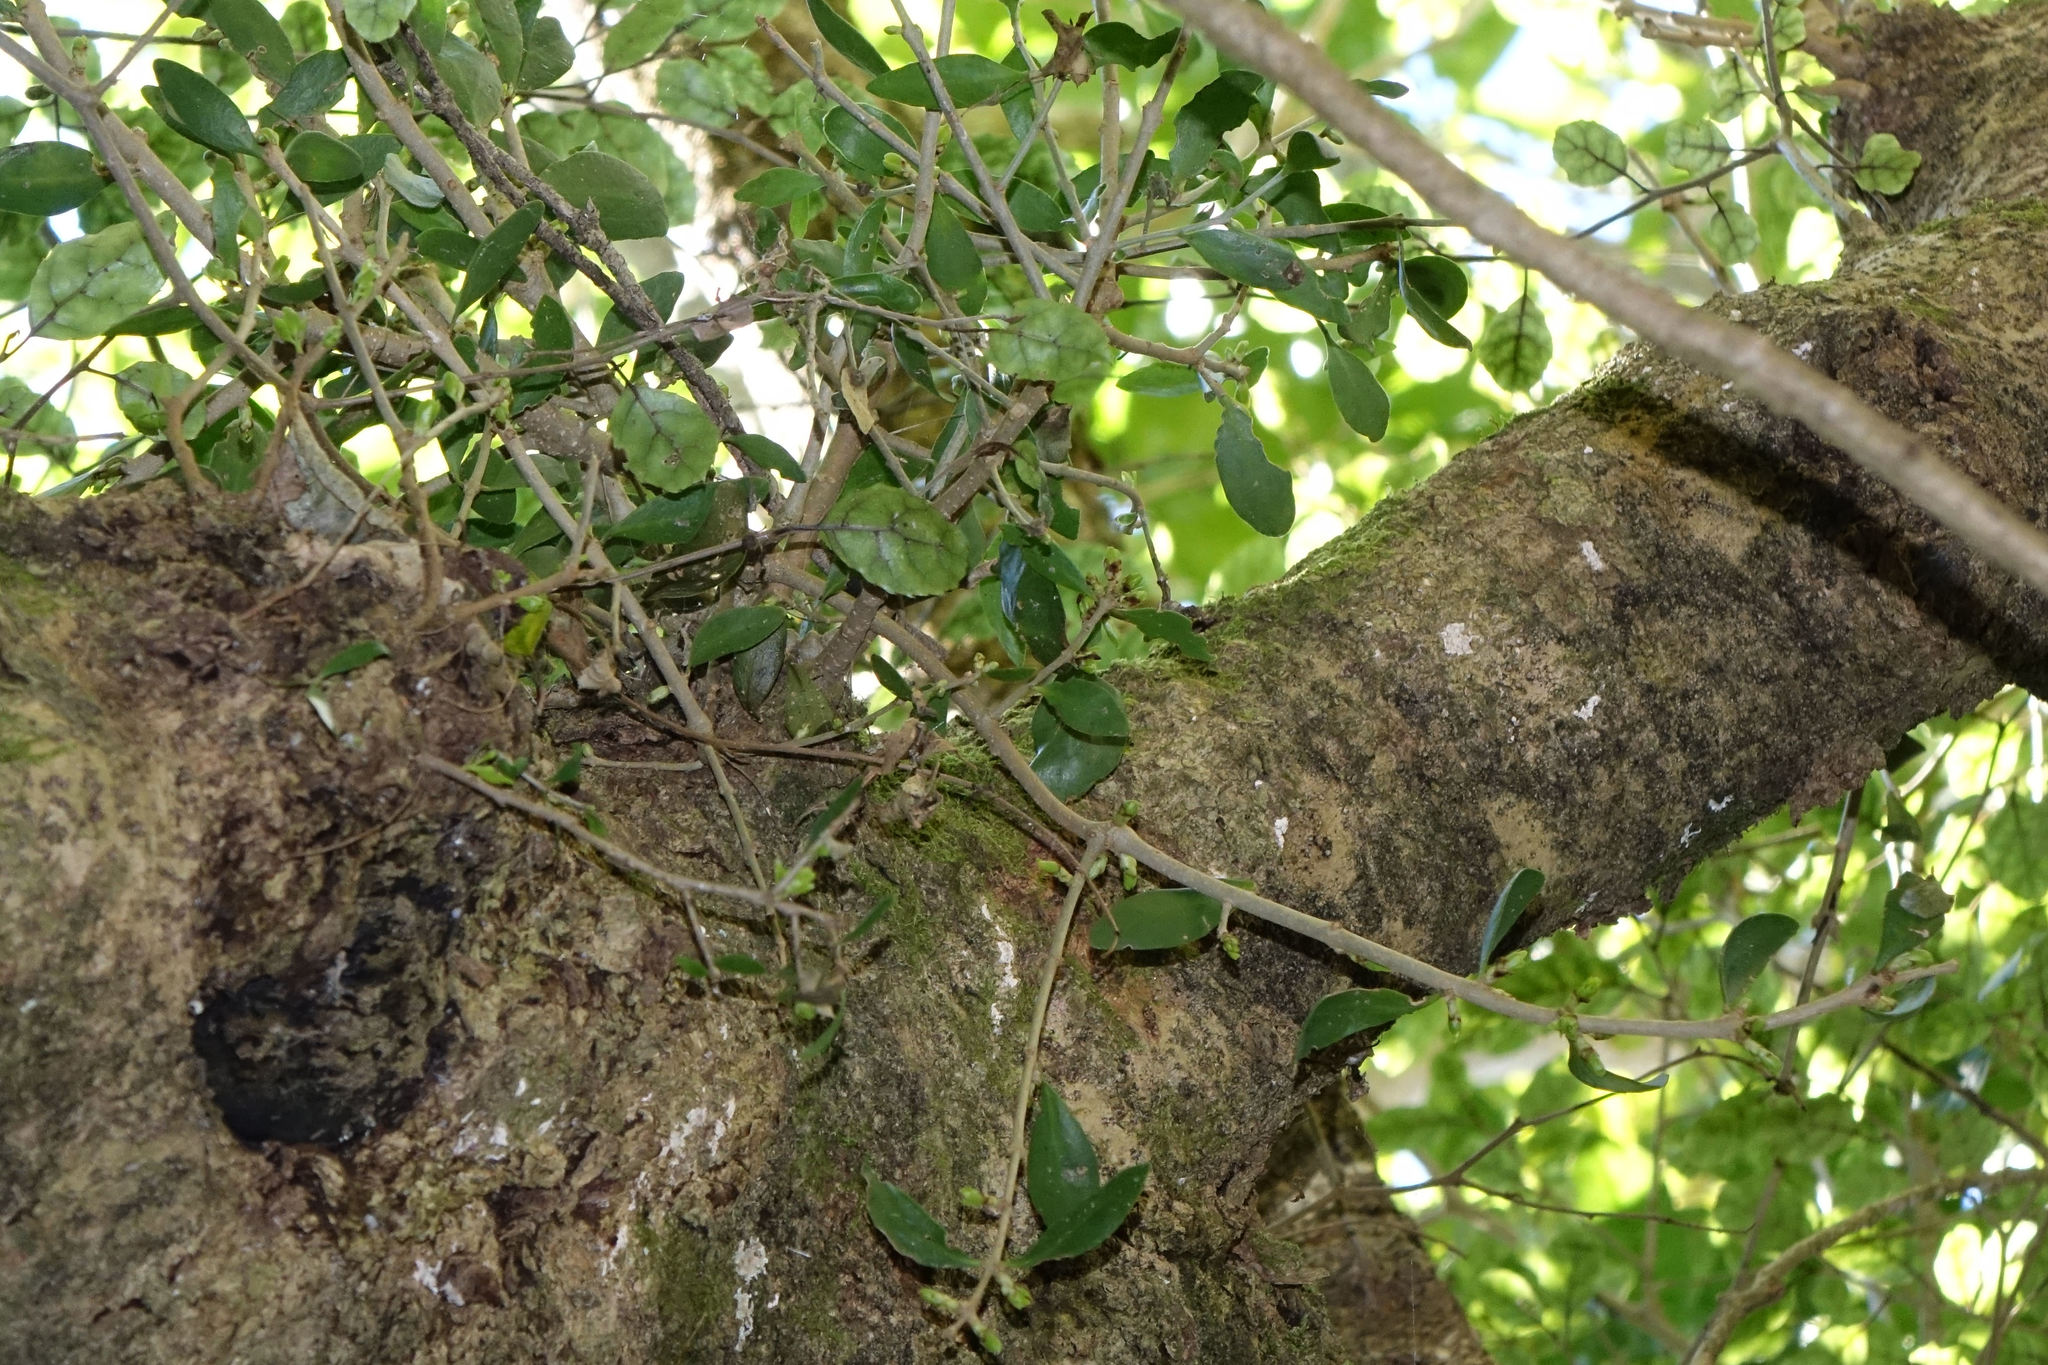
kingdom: Plantae
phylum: Tracheophyta
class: Magnoliopsida
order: Santalales
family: Loranthaceae
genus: Tupeia
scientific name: Tupeia antarctica
